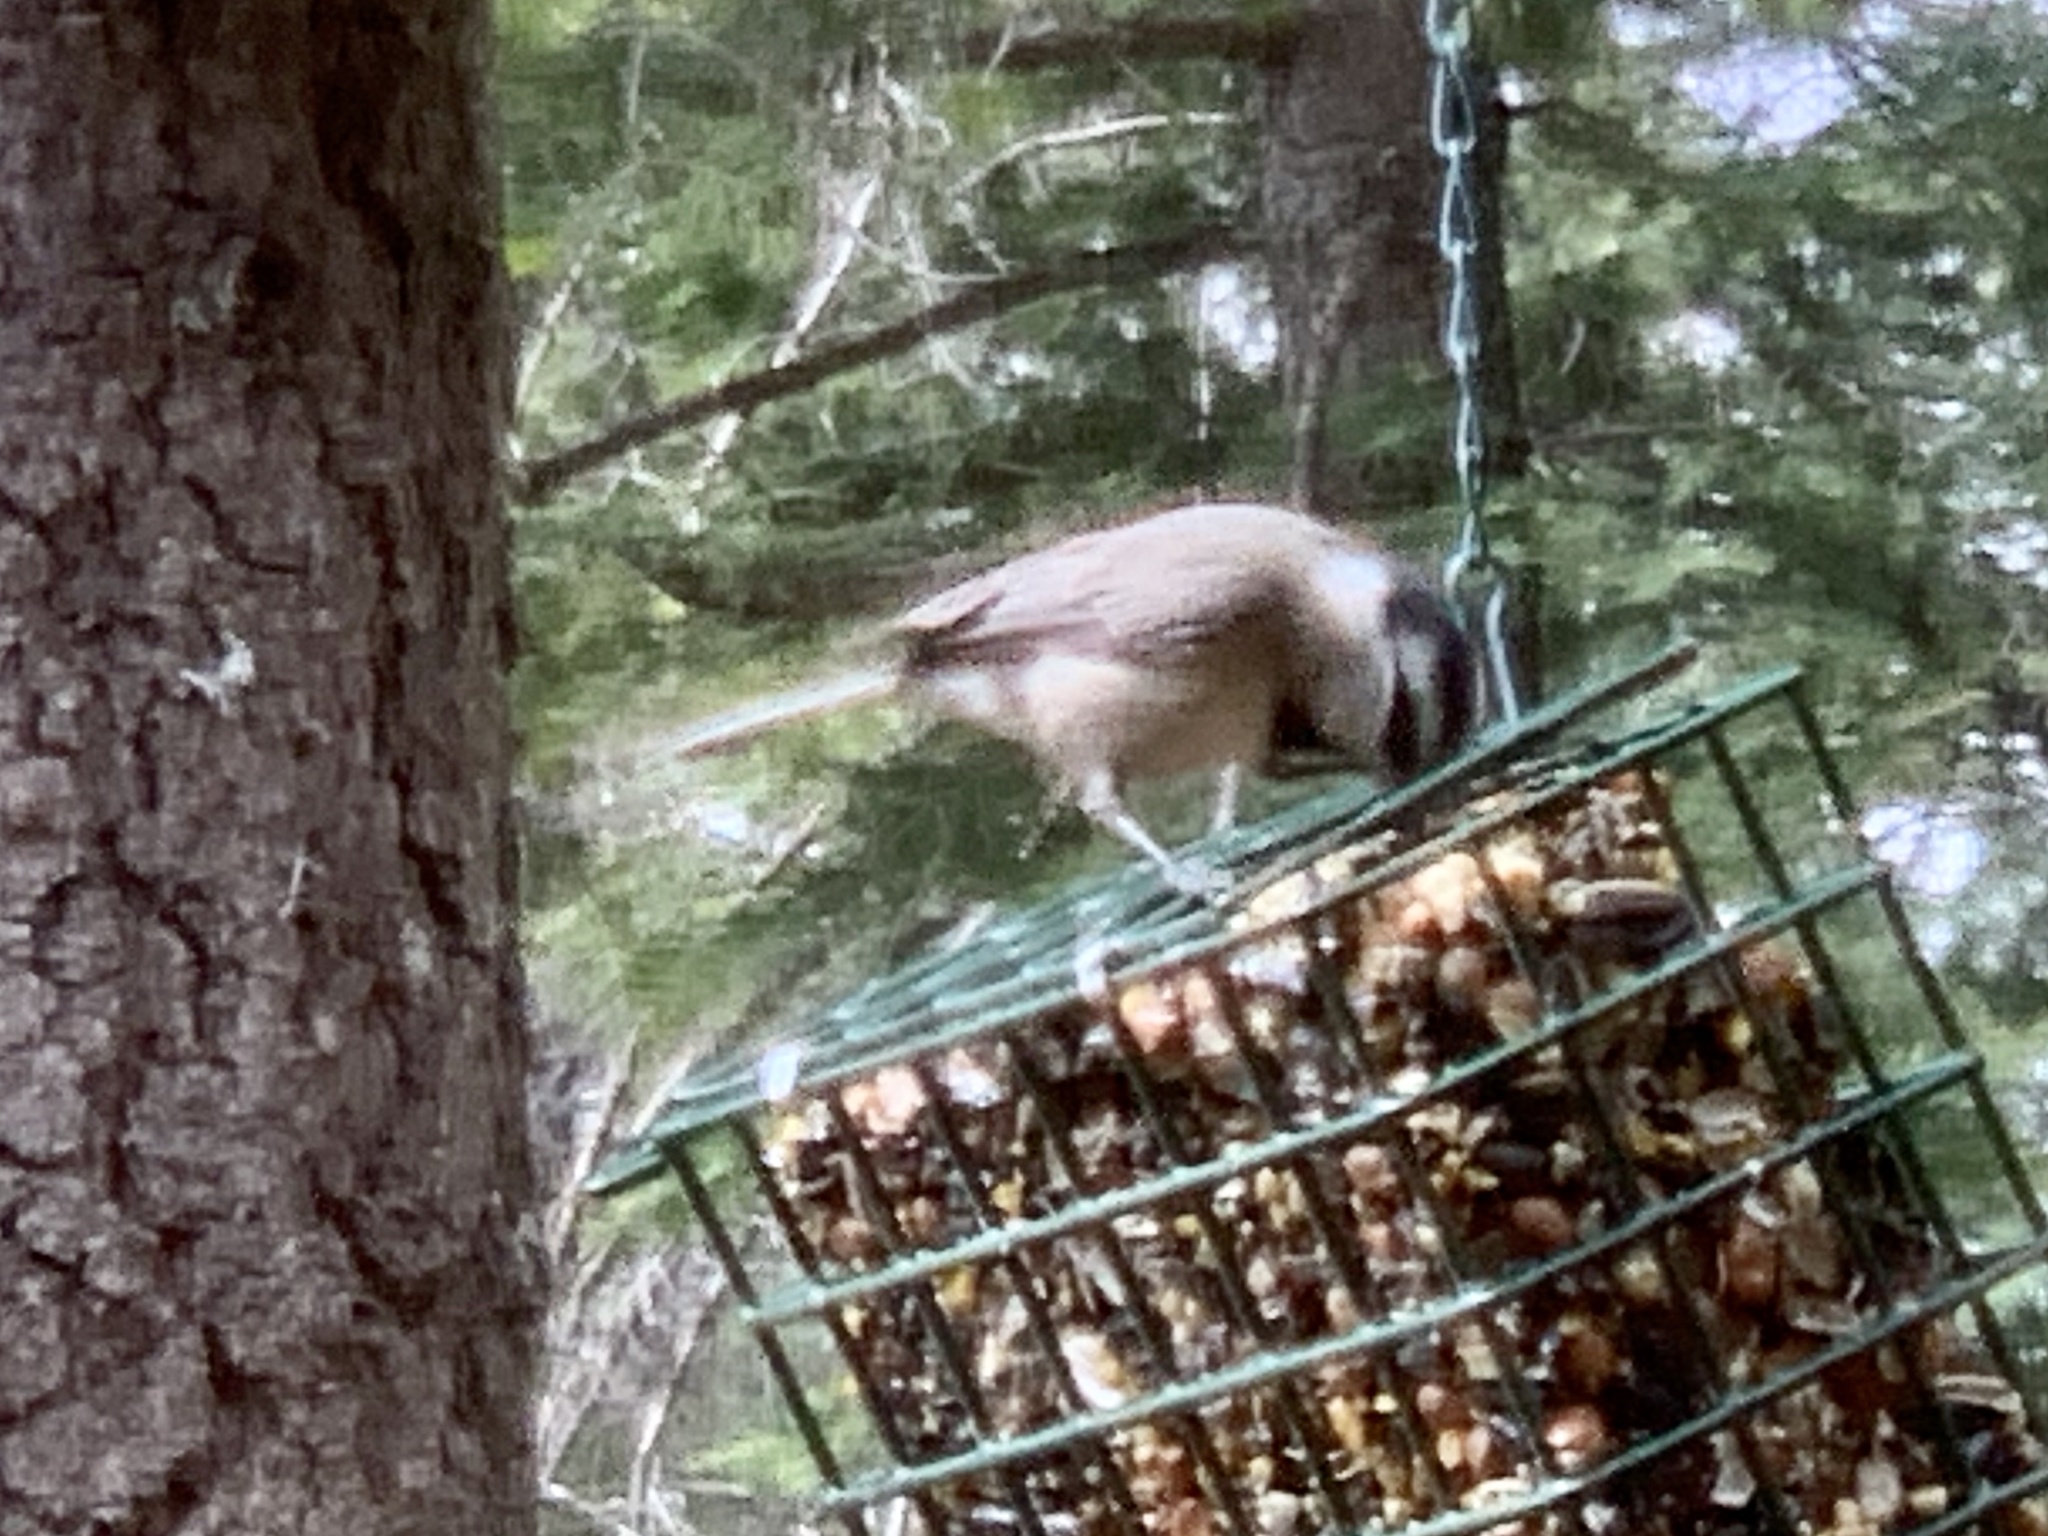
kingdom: Animalia
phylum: Chordata
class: Aves
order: Passeriformes
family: Paridae
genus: Poecile
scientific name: Poecile gambeli
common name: Mountain chickadee
